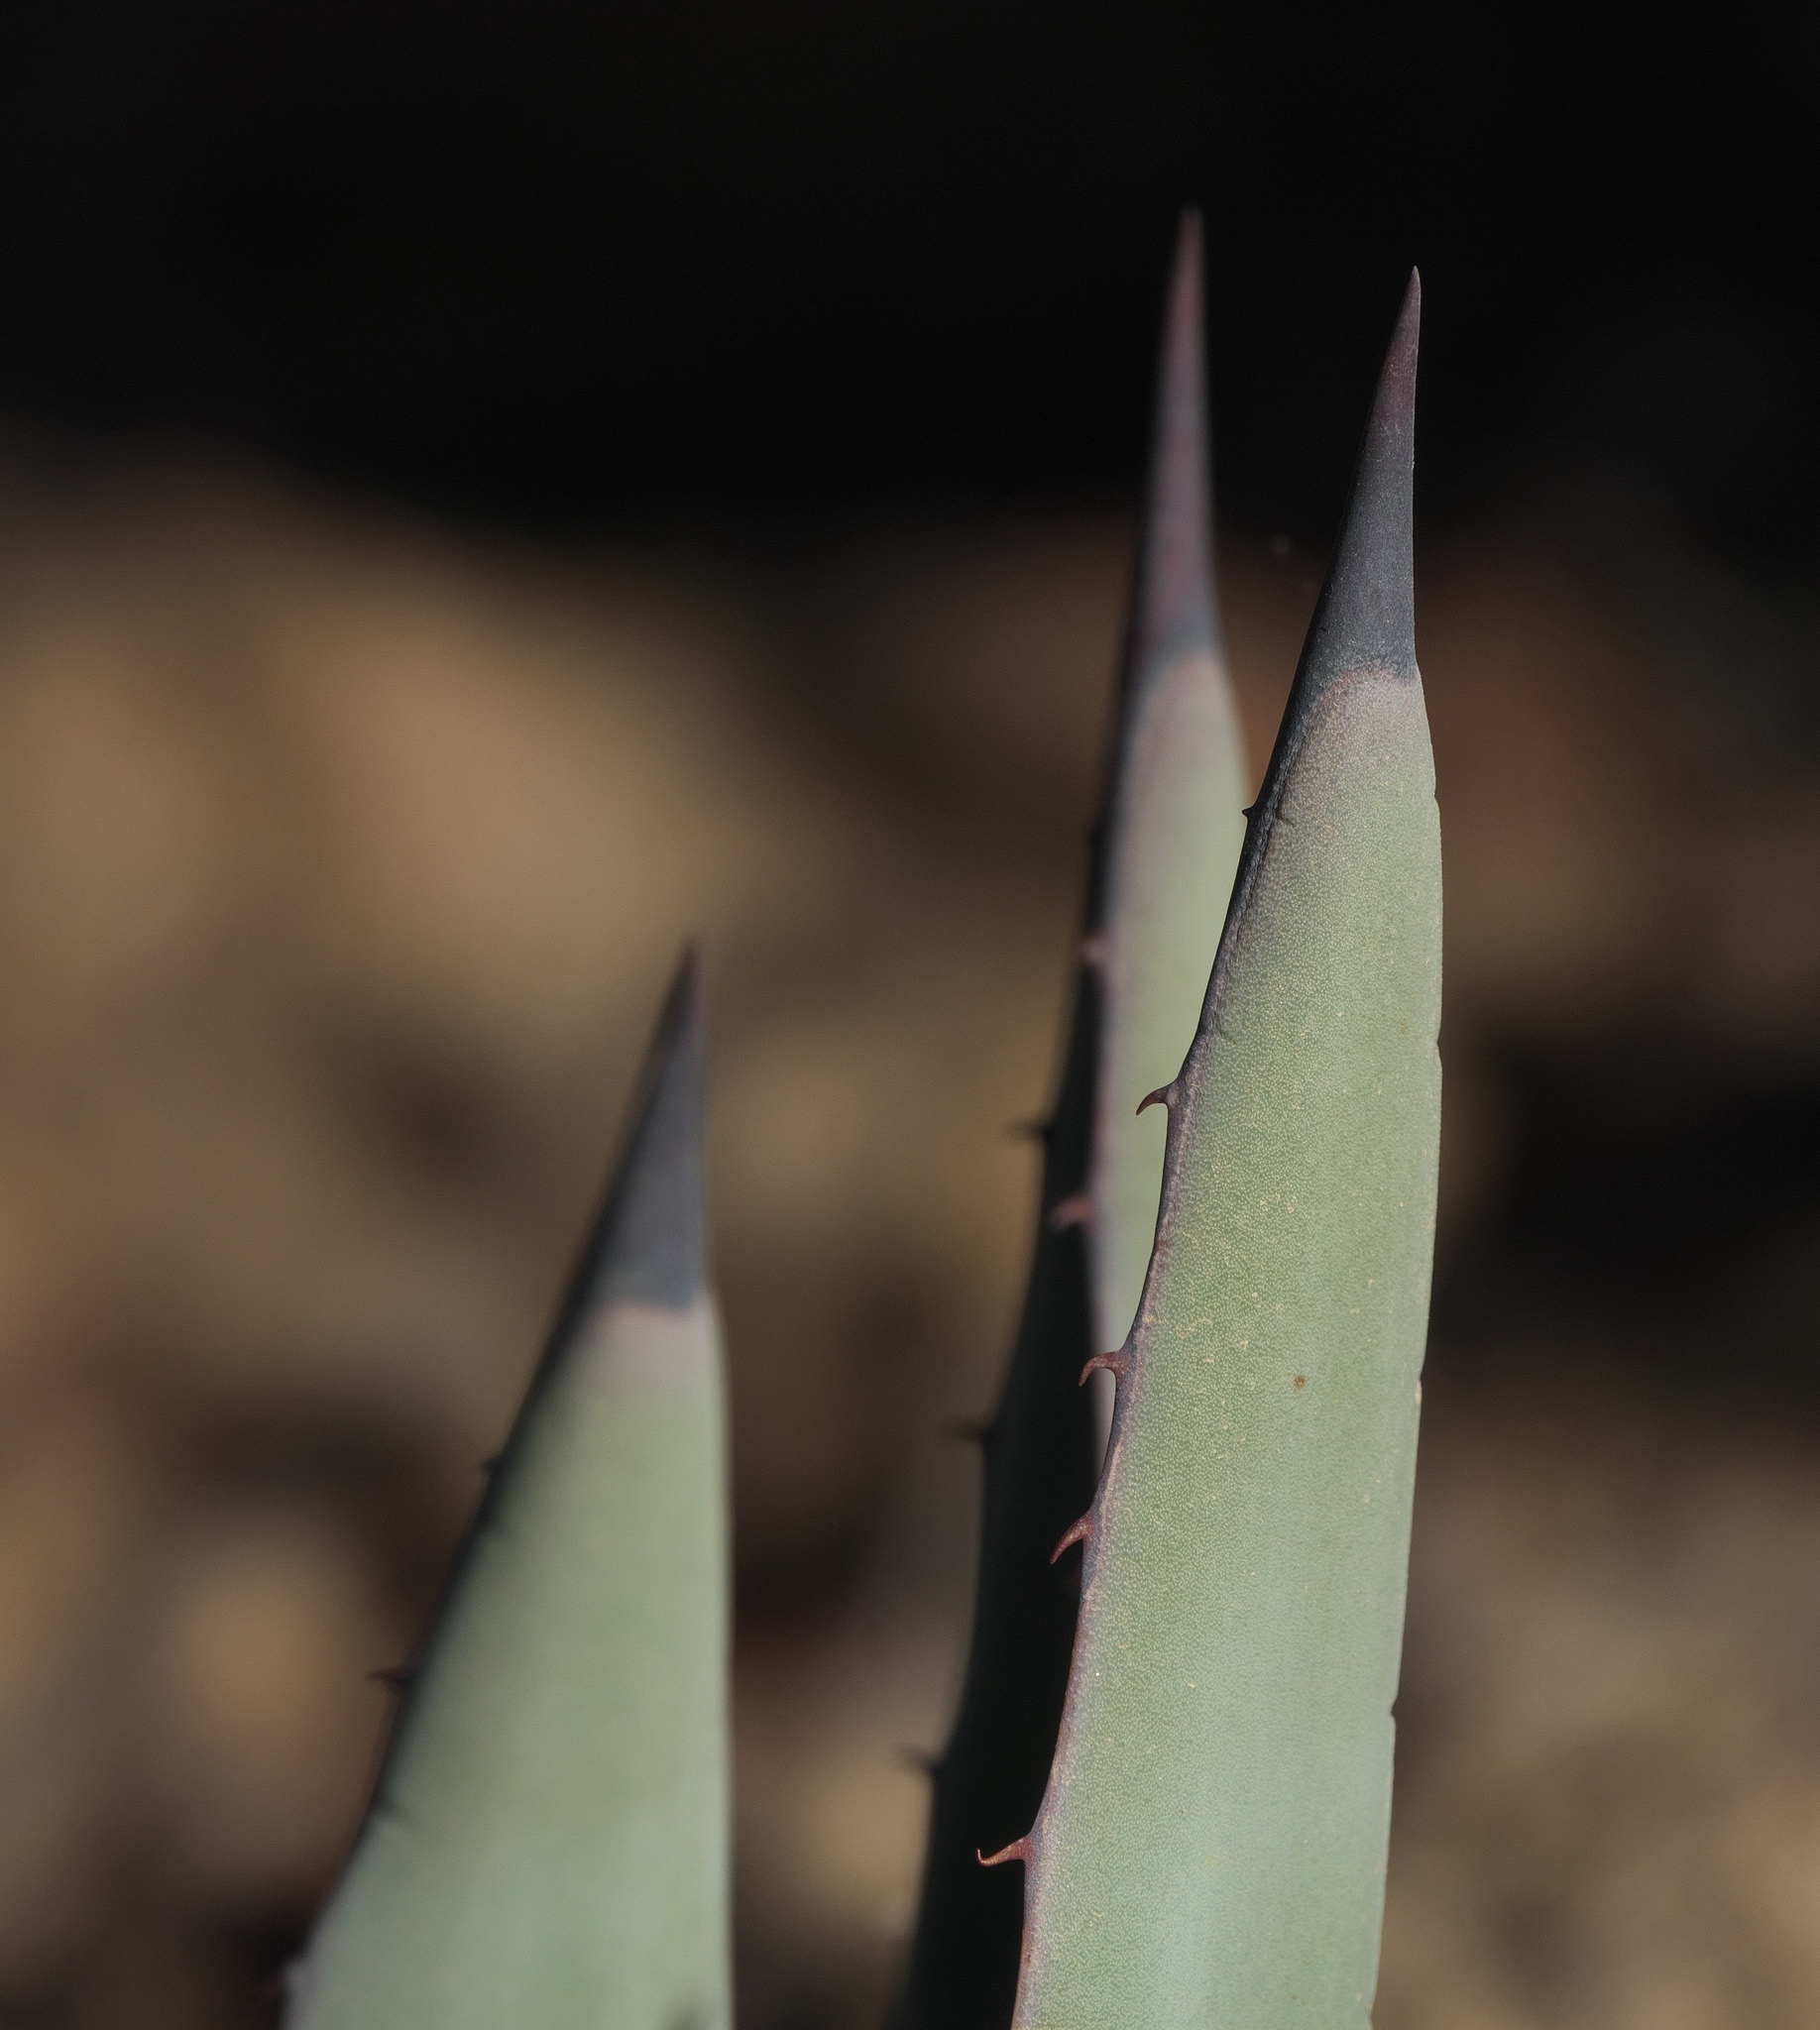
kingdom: Plantae
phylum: Tracheophyta
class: Liliopsida
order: Asparagales
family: Asparagaceae
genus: Agave
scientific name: Agave parryi
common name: Parry's agave
